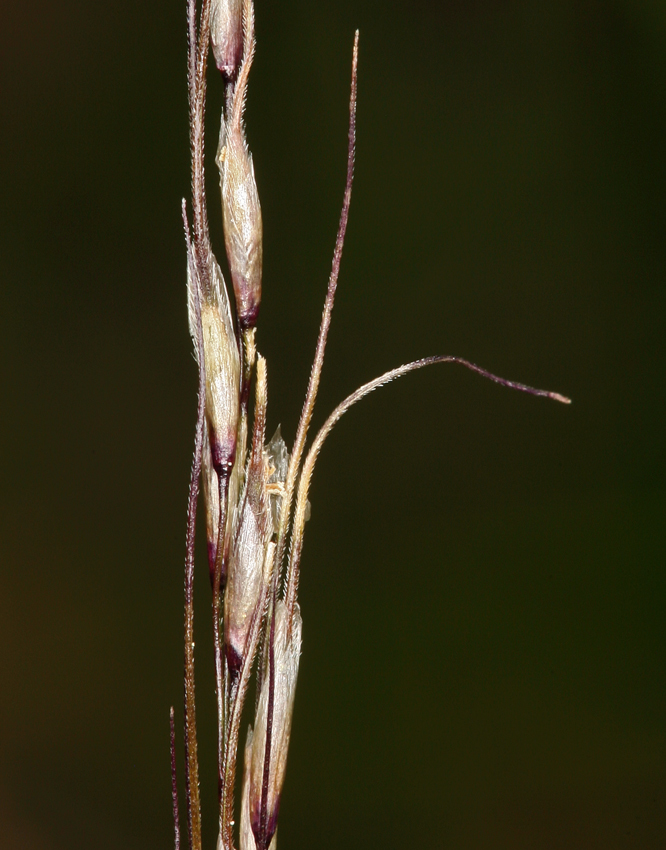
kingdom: Plantae
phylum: Tracheophyta
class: Liliopsida
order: Poales
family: Poaceae
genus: Ptilagrostiella
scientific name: Ptilagrostiella kingii
